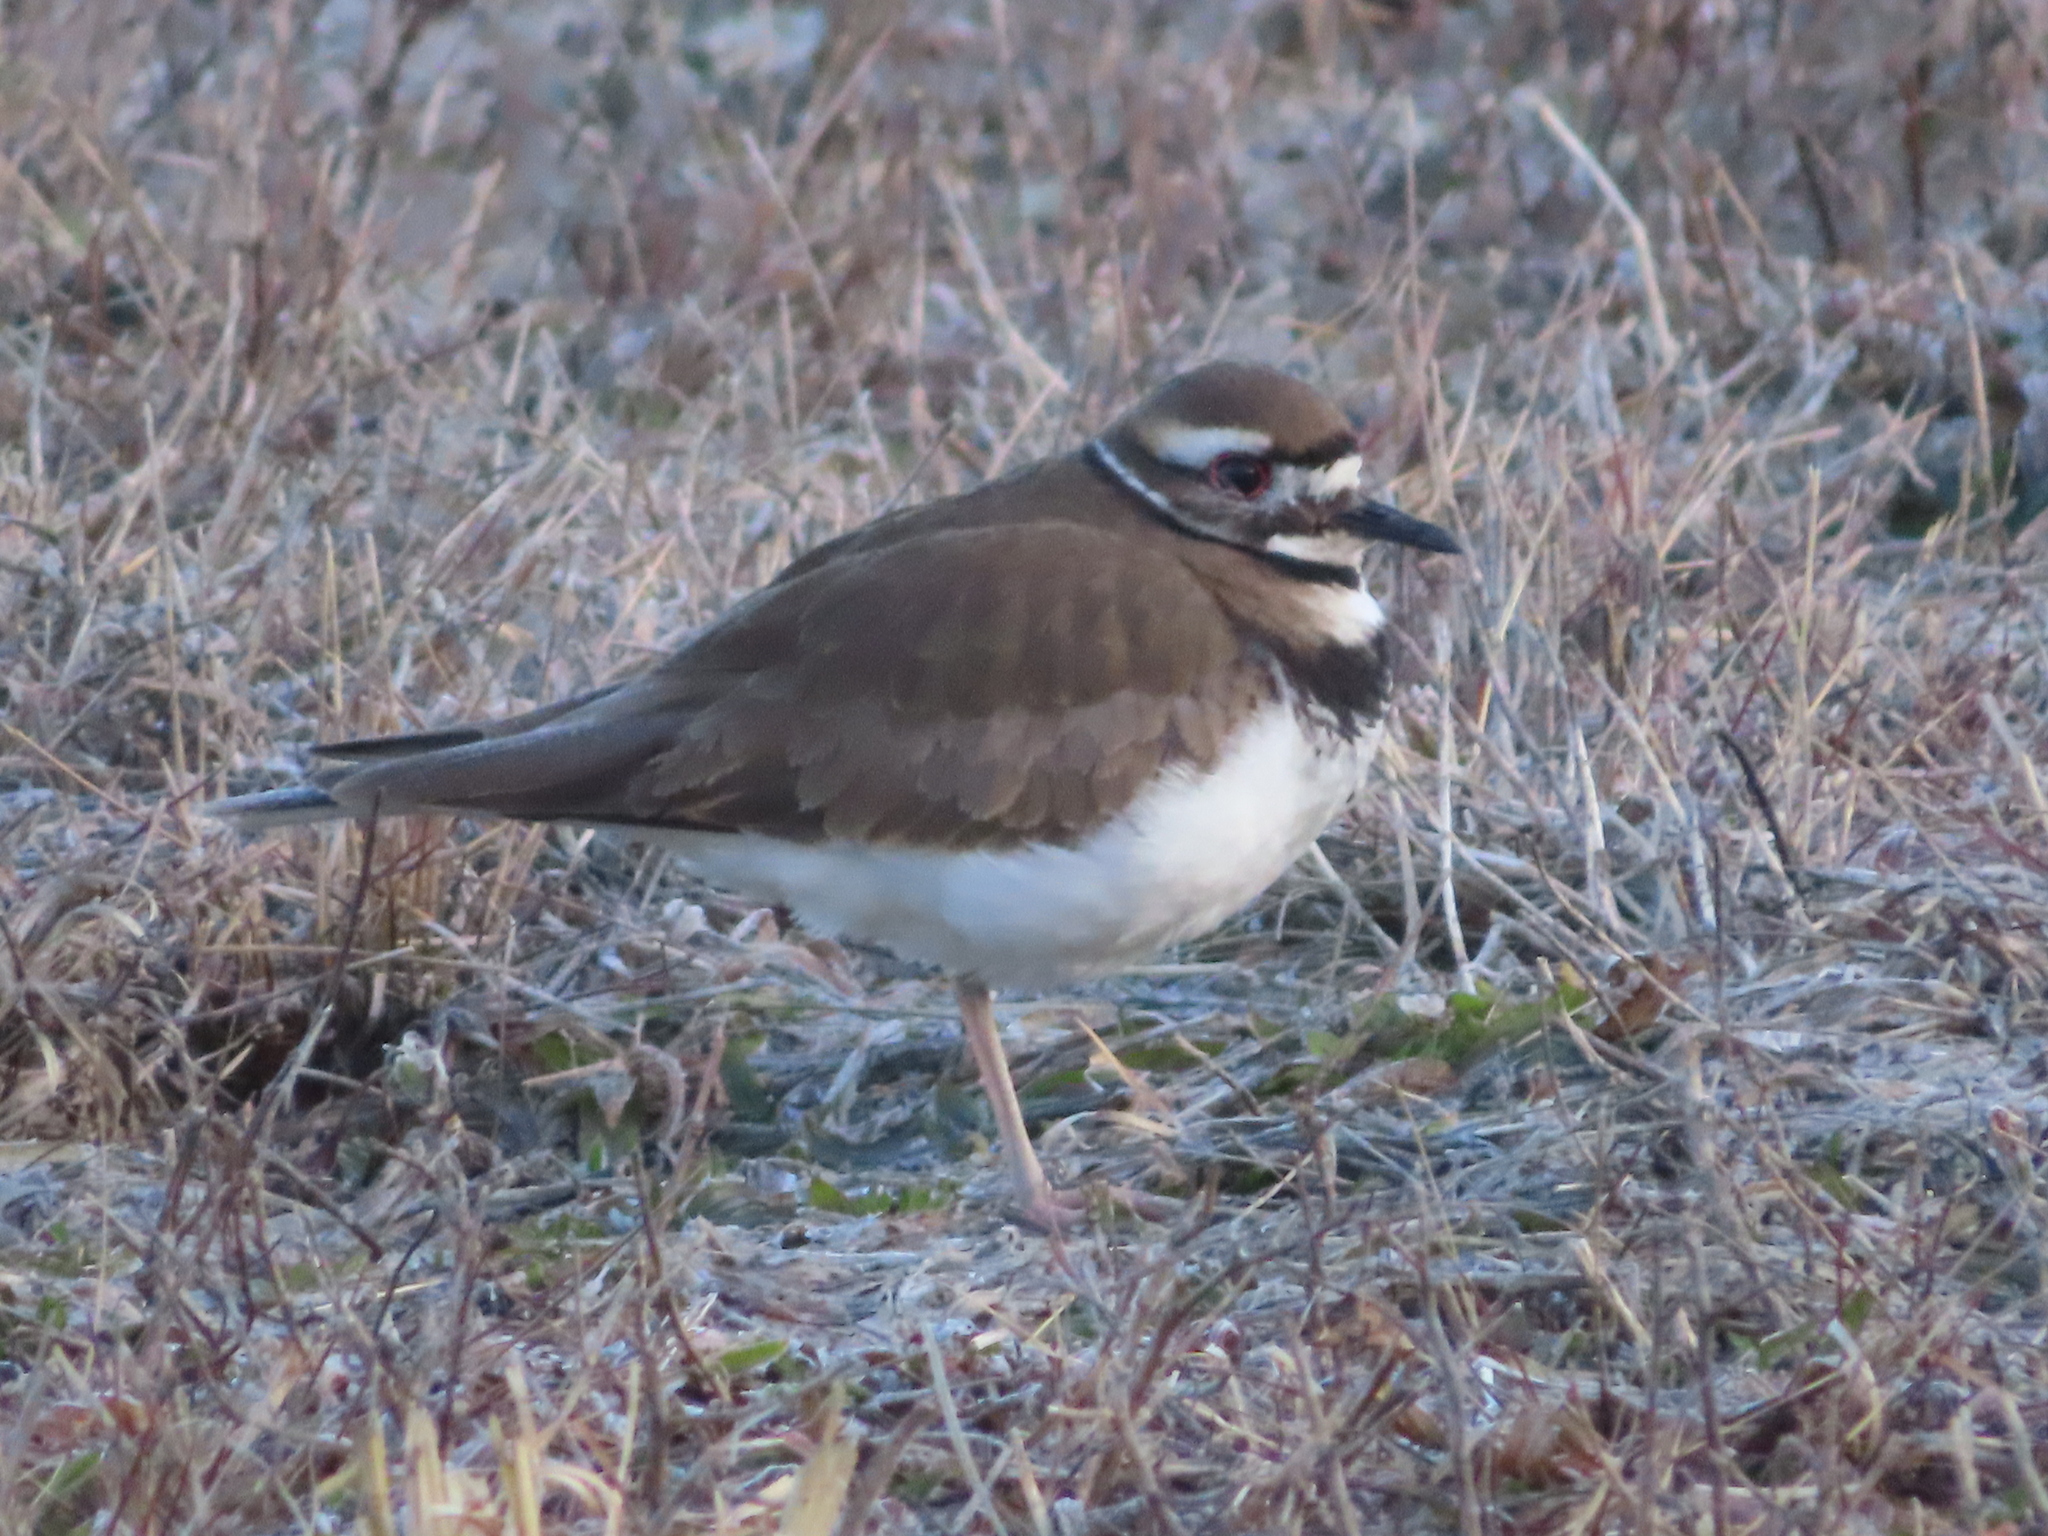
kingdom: Animalia
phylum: Chordata
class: Aves
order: Charadriiformes
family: Charadriidae
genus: Charadrius
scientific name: Charadrius vociferus
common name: Killdeer
